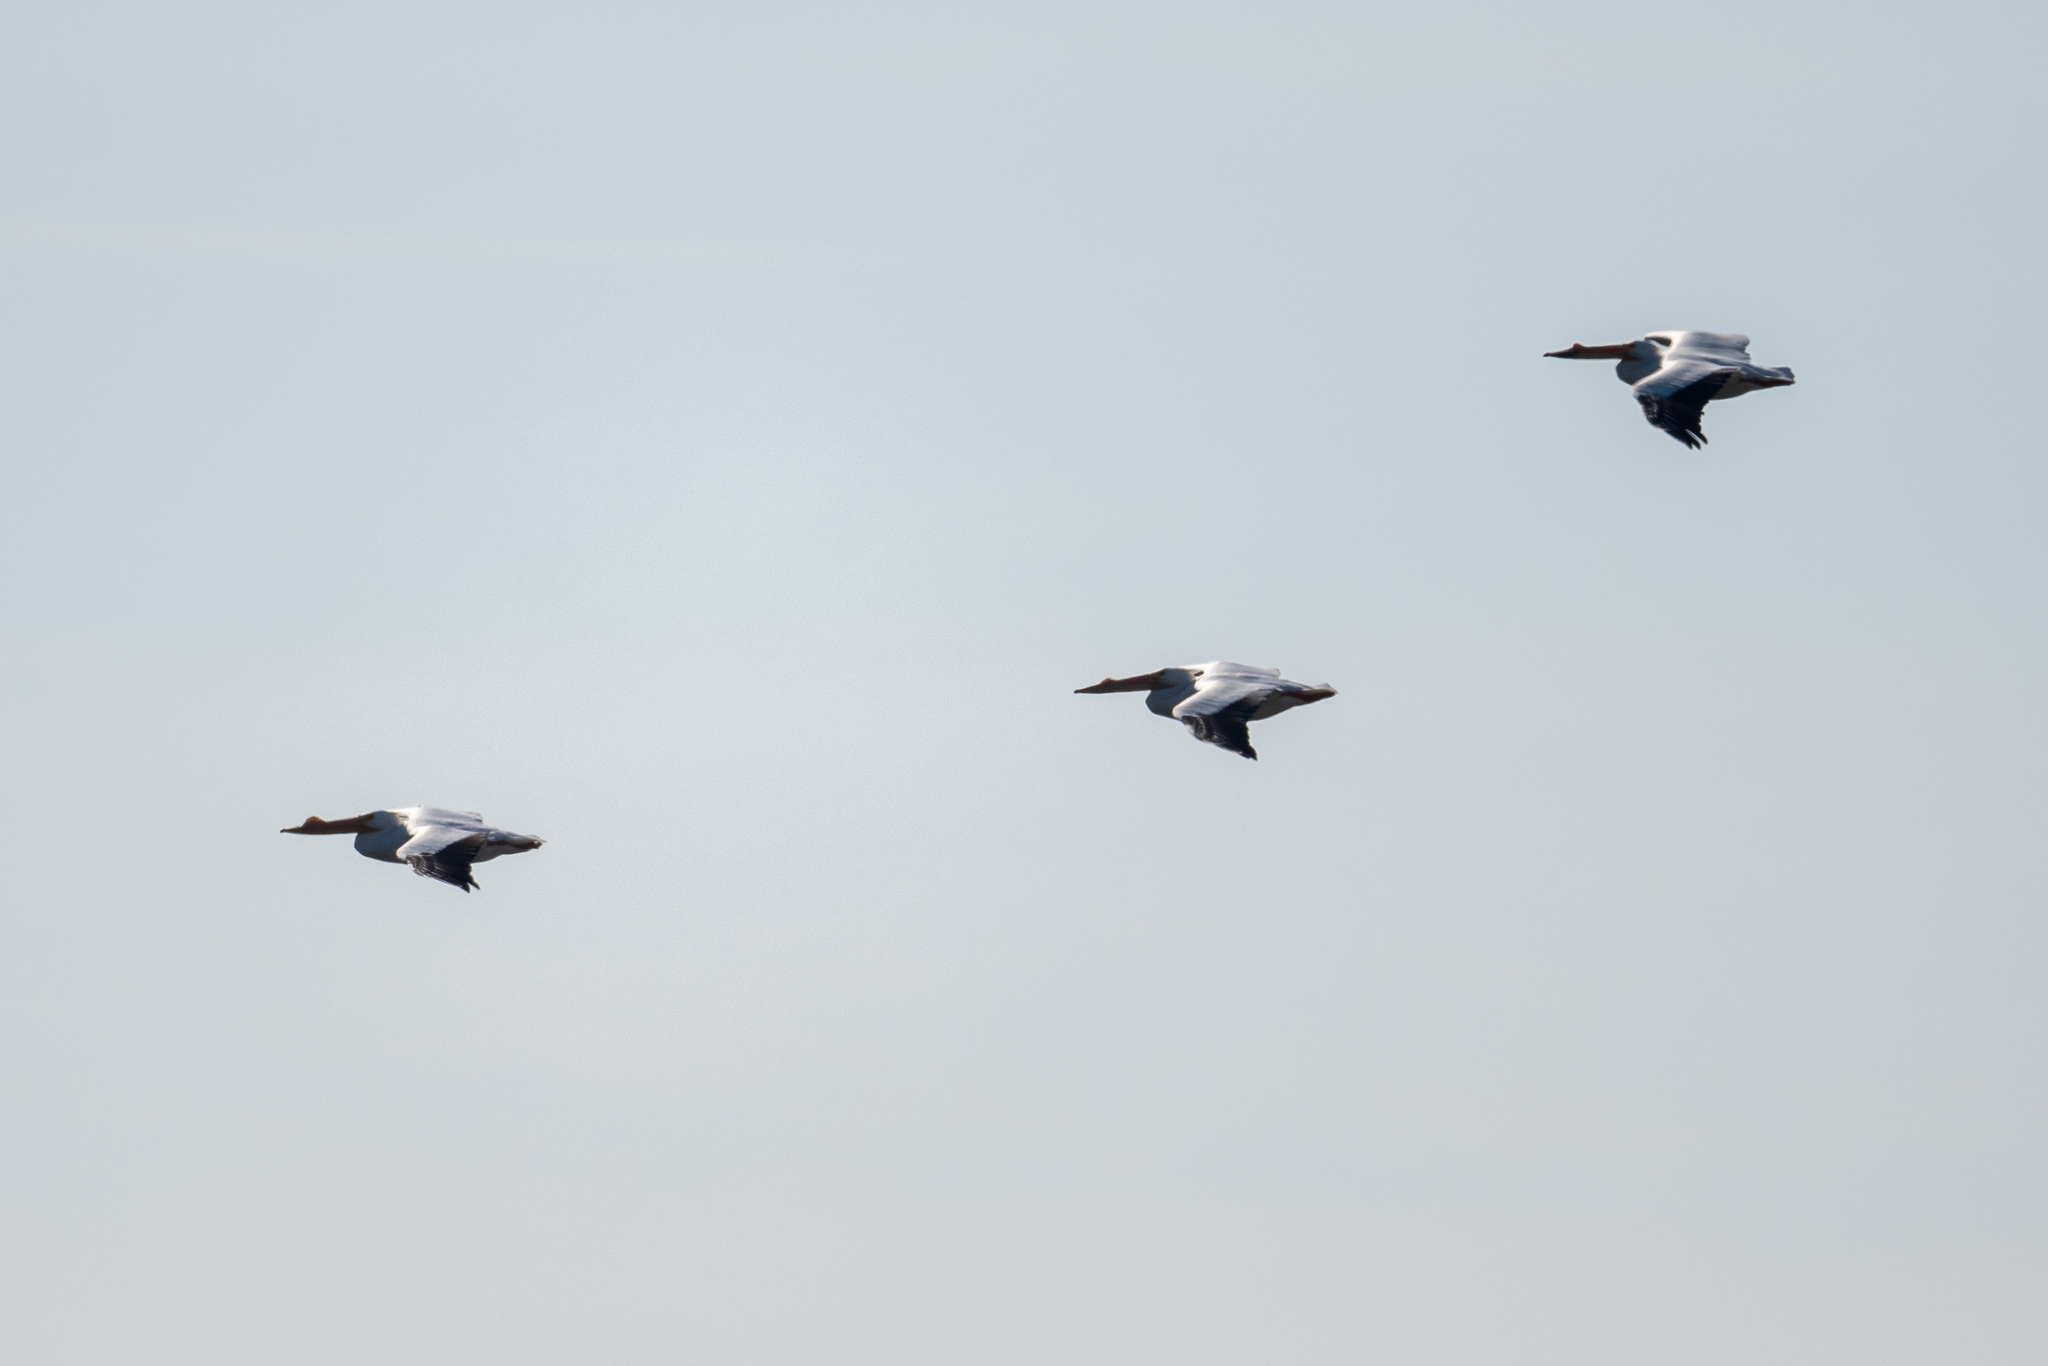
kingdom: Animalia
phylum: Chordata
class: Aves
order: Pelecaniformes
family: Pelecanidae
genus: Pelecanus
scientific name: Pelecanus erythrorhynchos
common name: American white pelican
